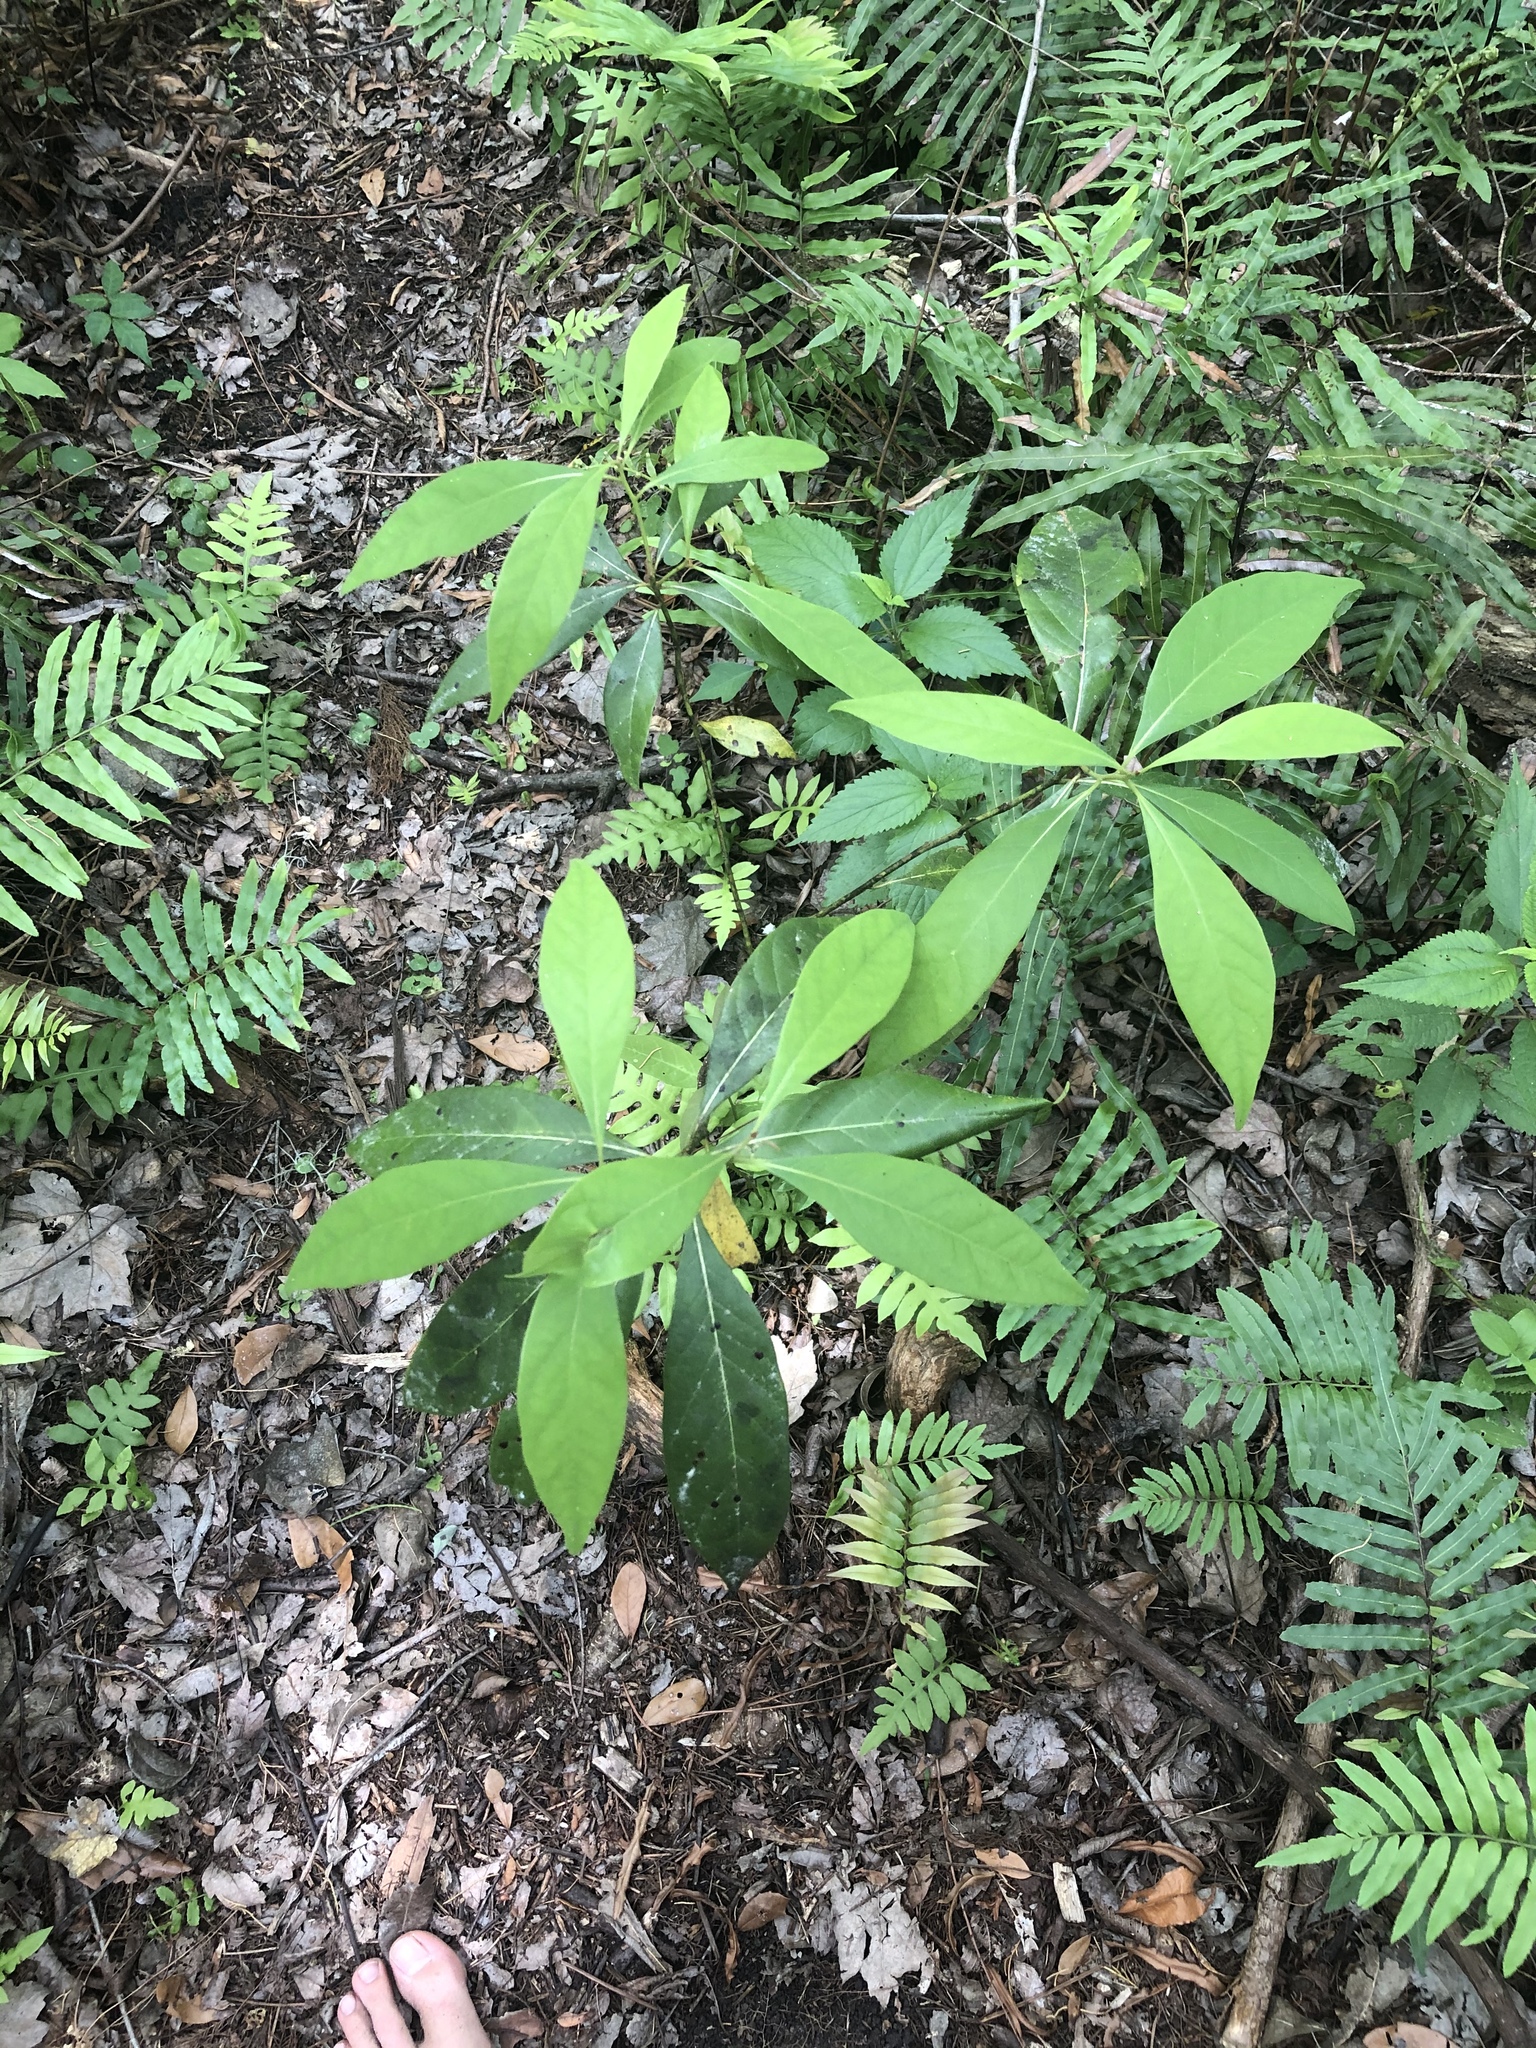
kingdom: Plantae
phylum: Tracheophyta
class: Magnoliopsida
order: Laurales
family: Lauraceae
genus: Persea
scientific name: Persea palustris
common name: Swampbay
